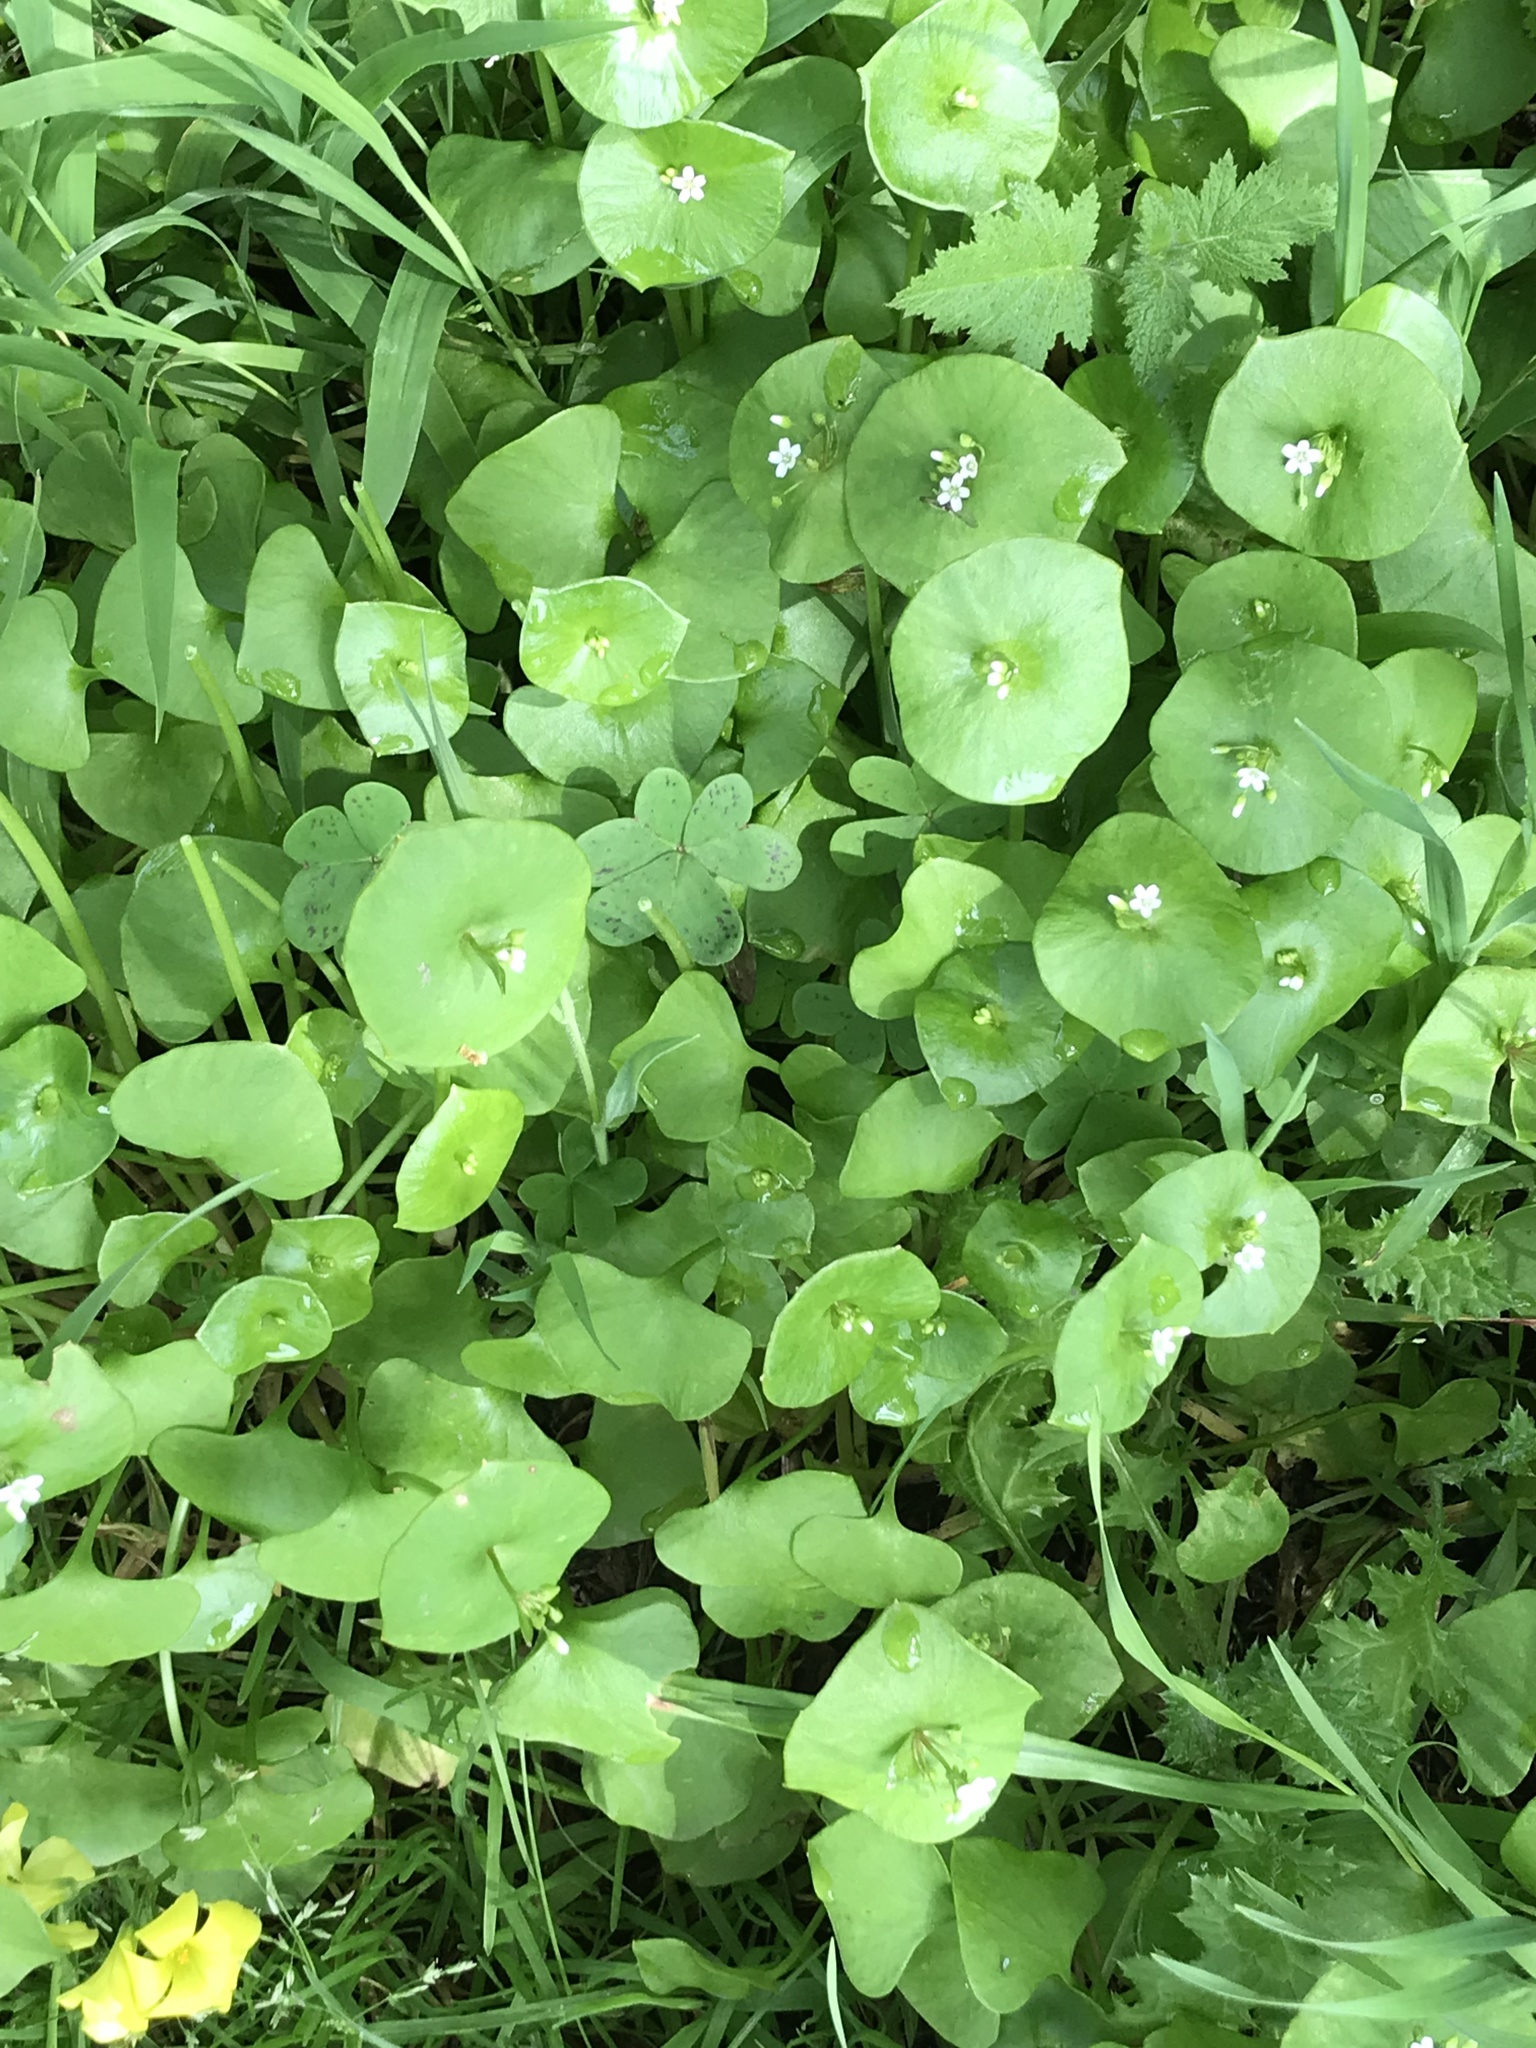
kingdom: Plantae
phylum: Tracheophyta
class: Magnoliopsida
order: Caryophyllales
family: Montiaceae
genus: Claytonia
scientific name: Claytonia perfoliata
